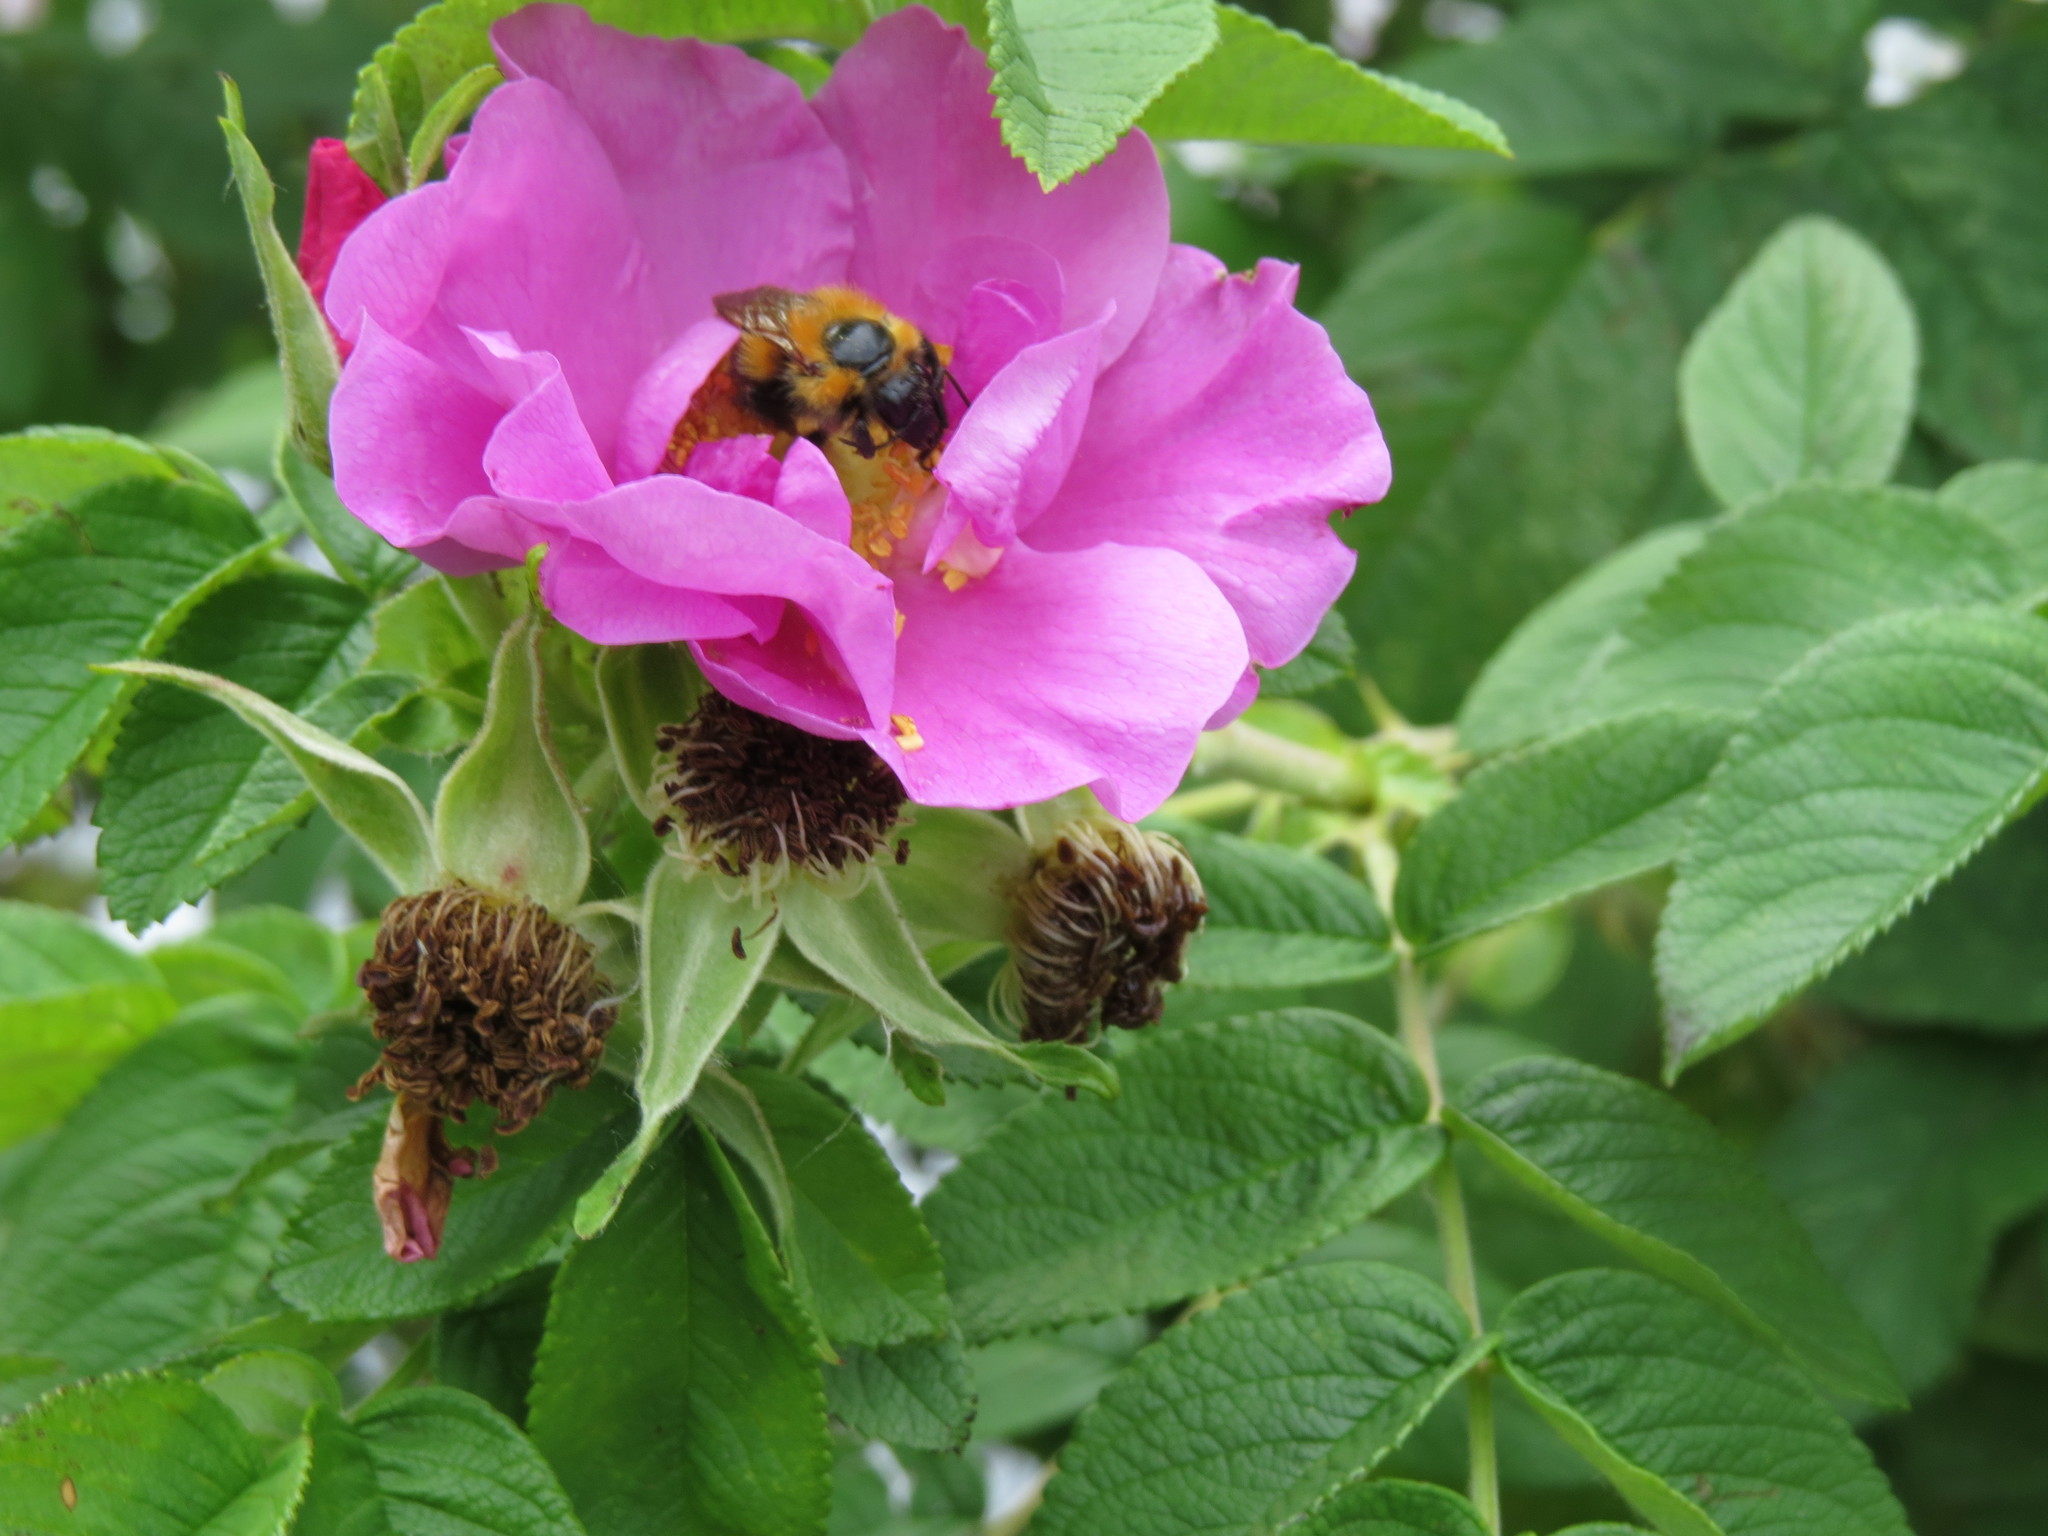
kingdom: Animalia
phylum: Arthropoda
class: Insecta
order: Hymenoptera
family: Apidae
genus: Bombus
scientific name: Bombus hypnorum
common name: New garden bumblebee
